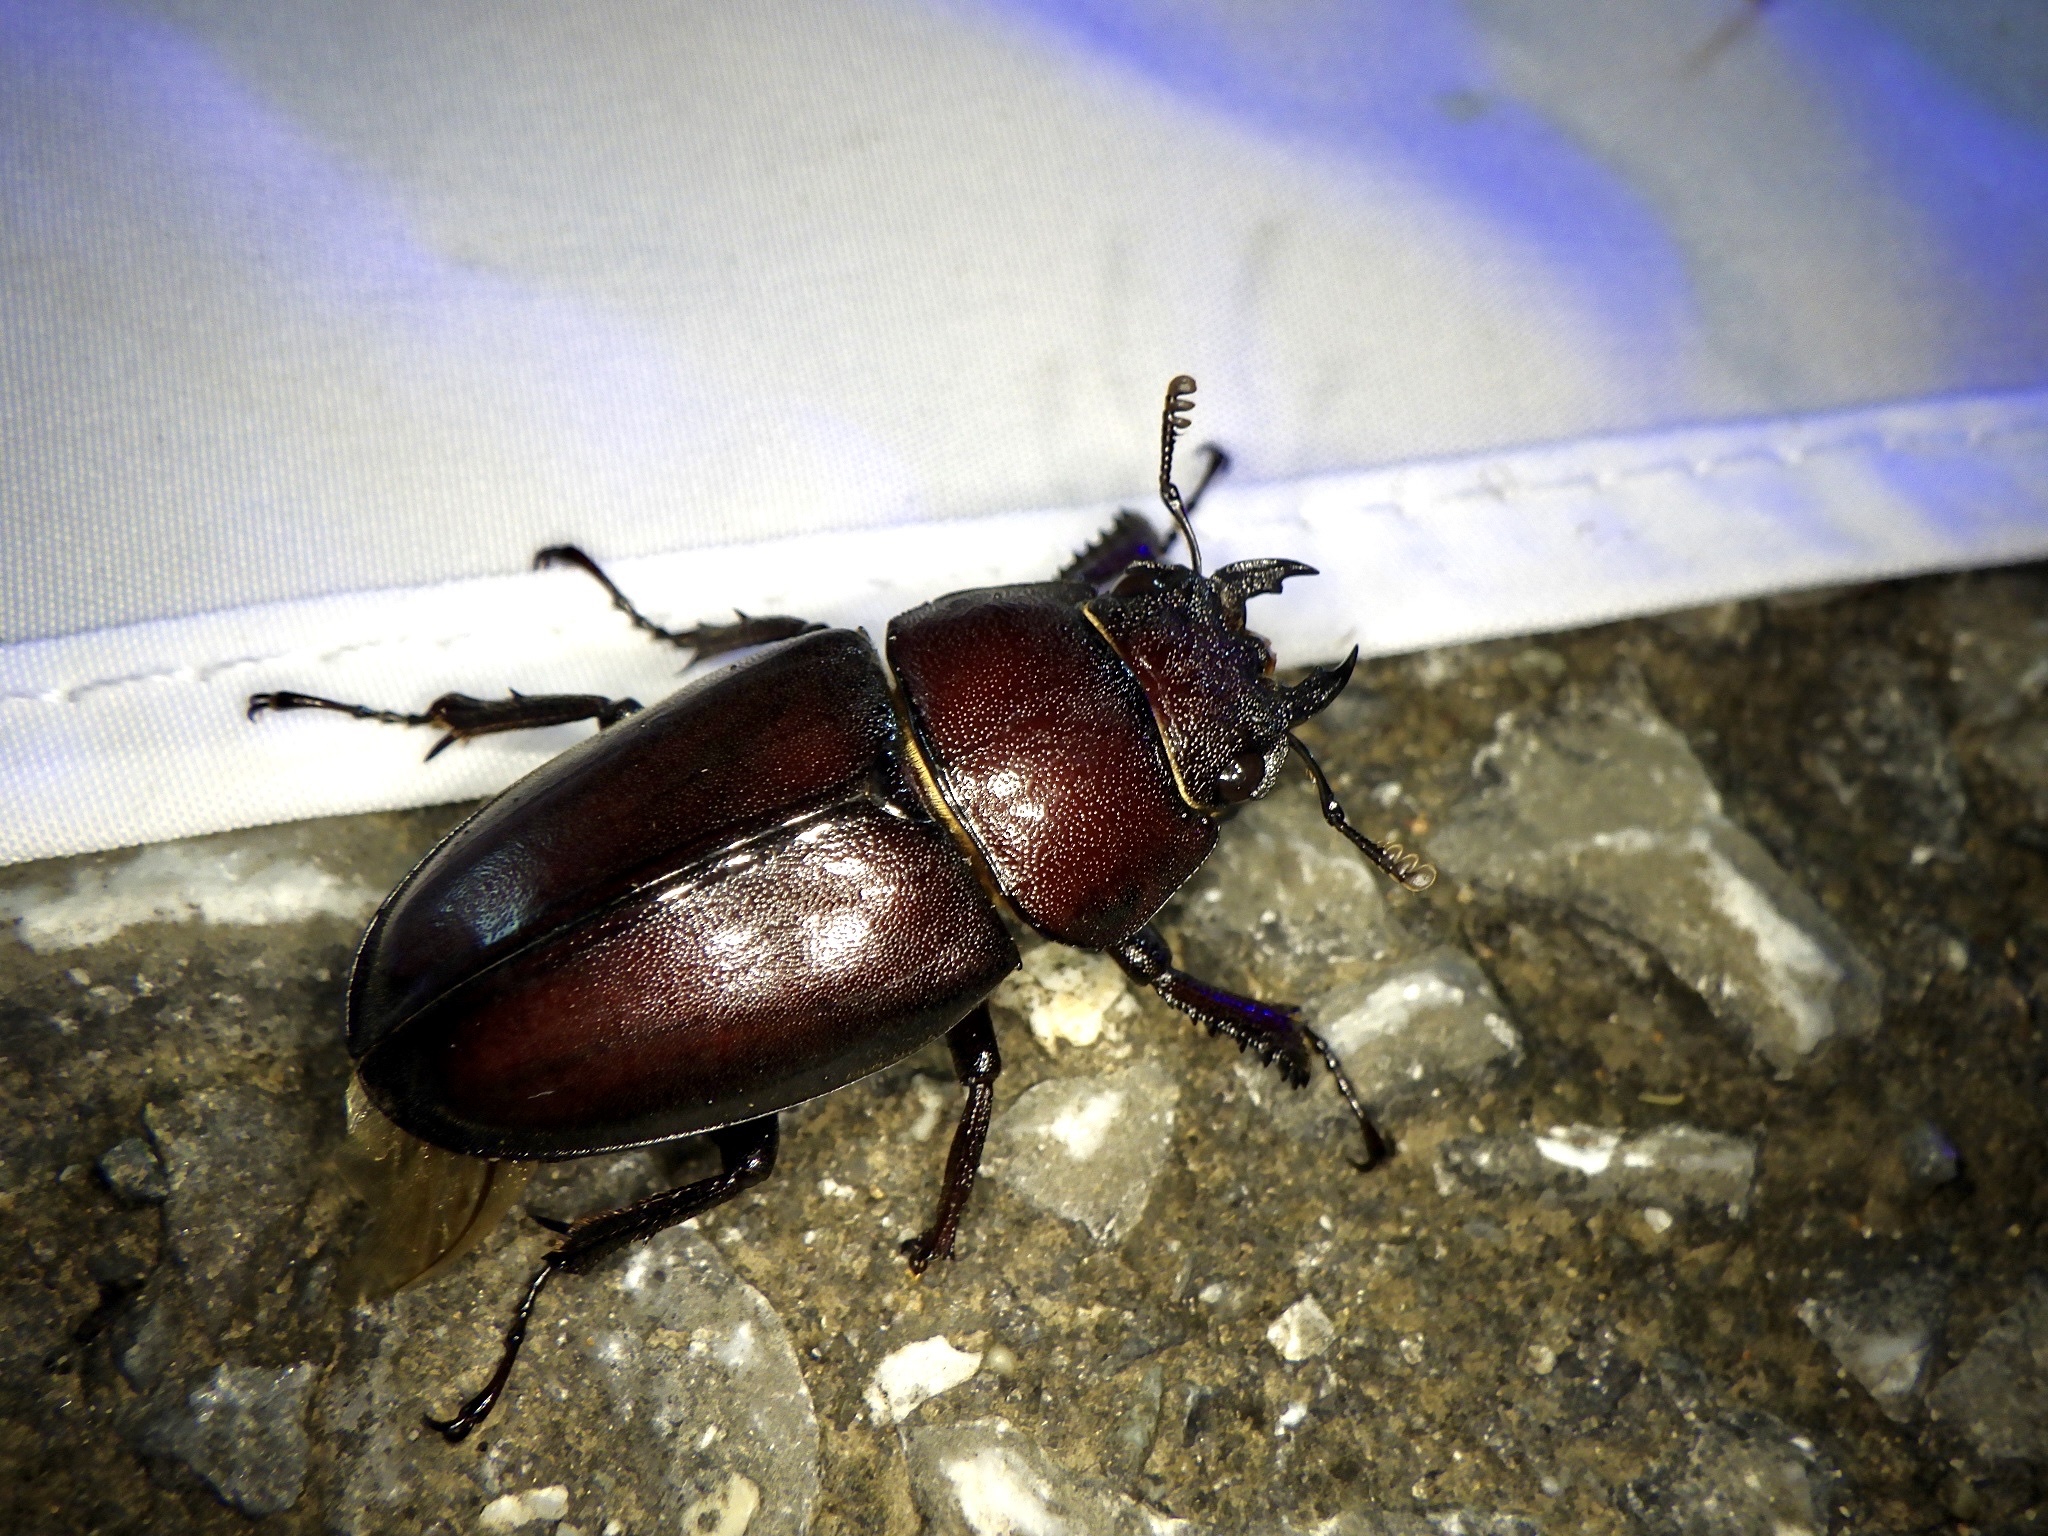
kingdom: Animalia
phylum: Arthropoda
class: Insecta
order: Coleoptera
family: Lucanidae
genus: Prosopocoilus
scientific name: Prosopocoilus inclinatus
